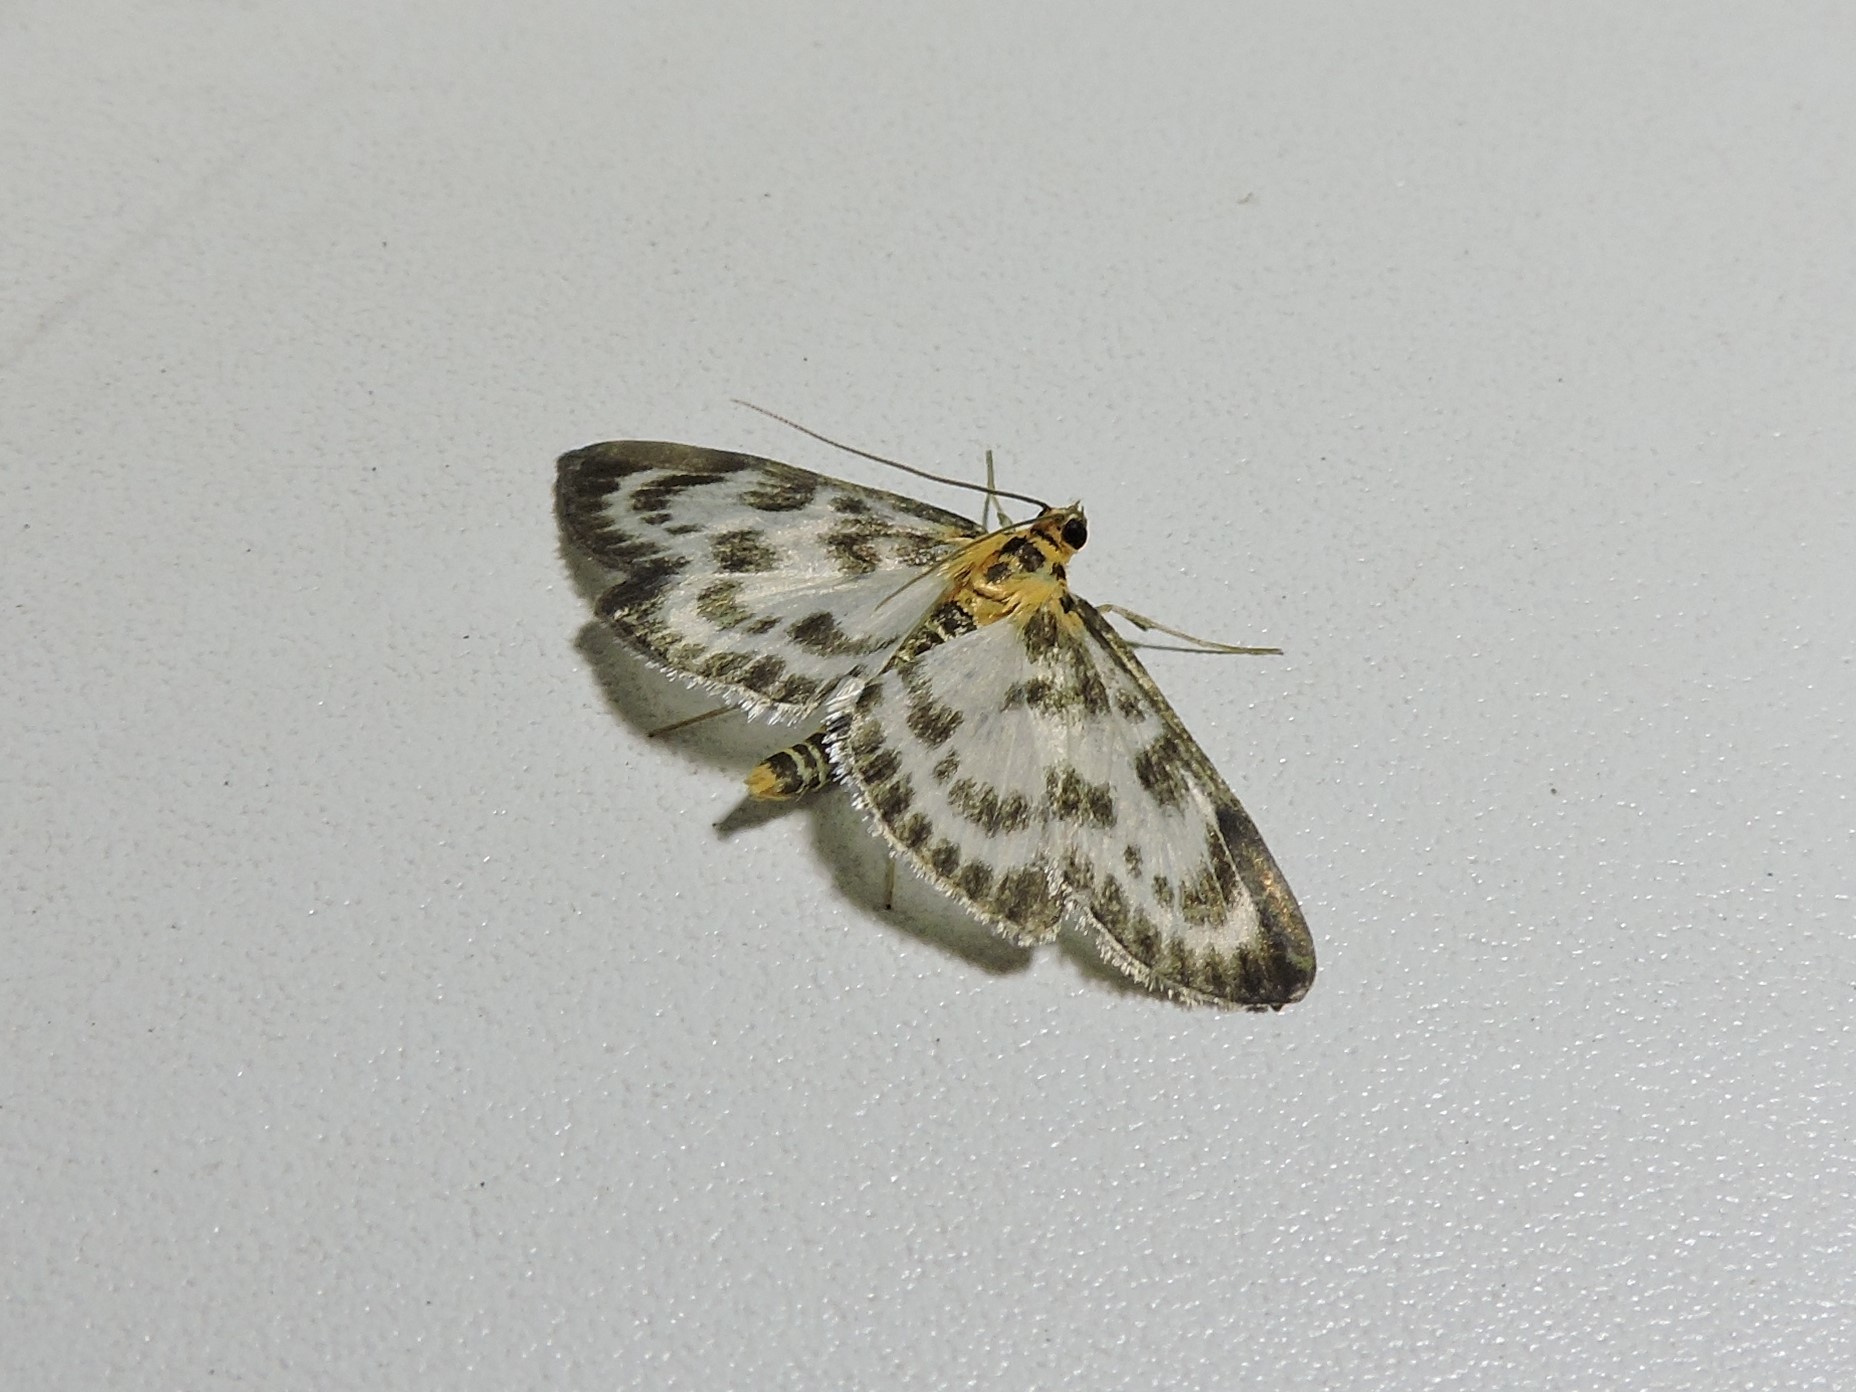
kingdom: Animalia
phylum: Arthropoda
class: Insecta
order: Lepidoptera
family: Crambidae
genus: Anania
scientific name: Anania hortulata
